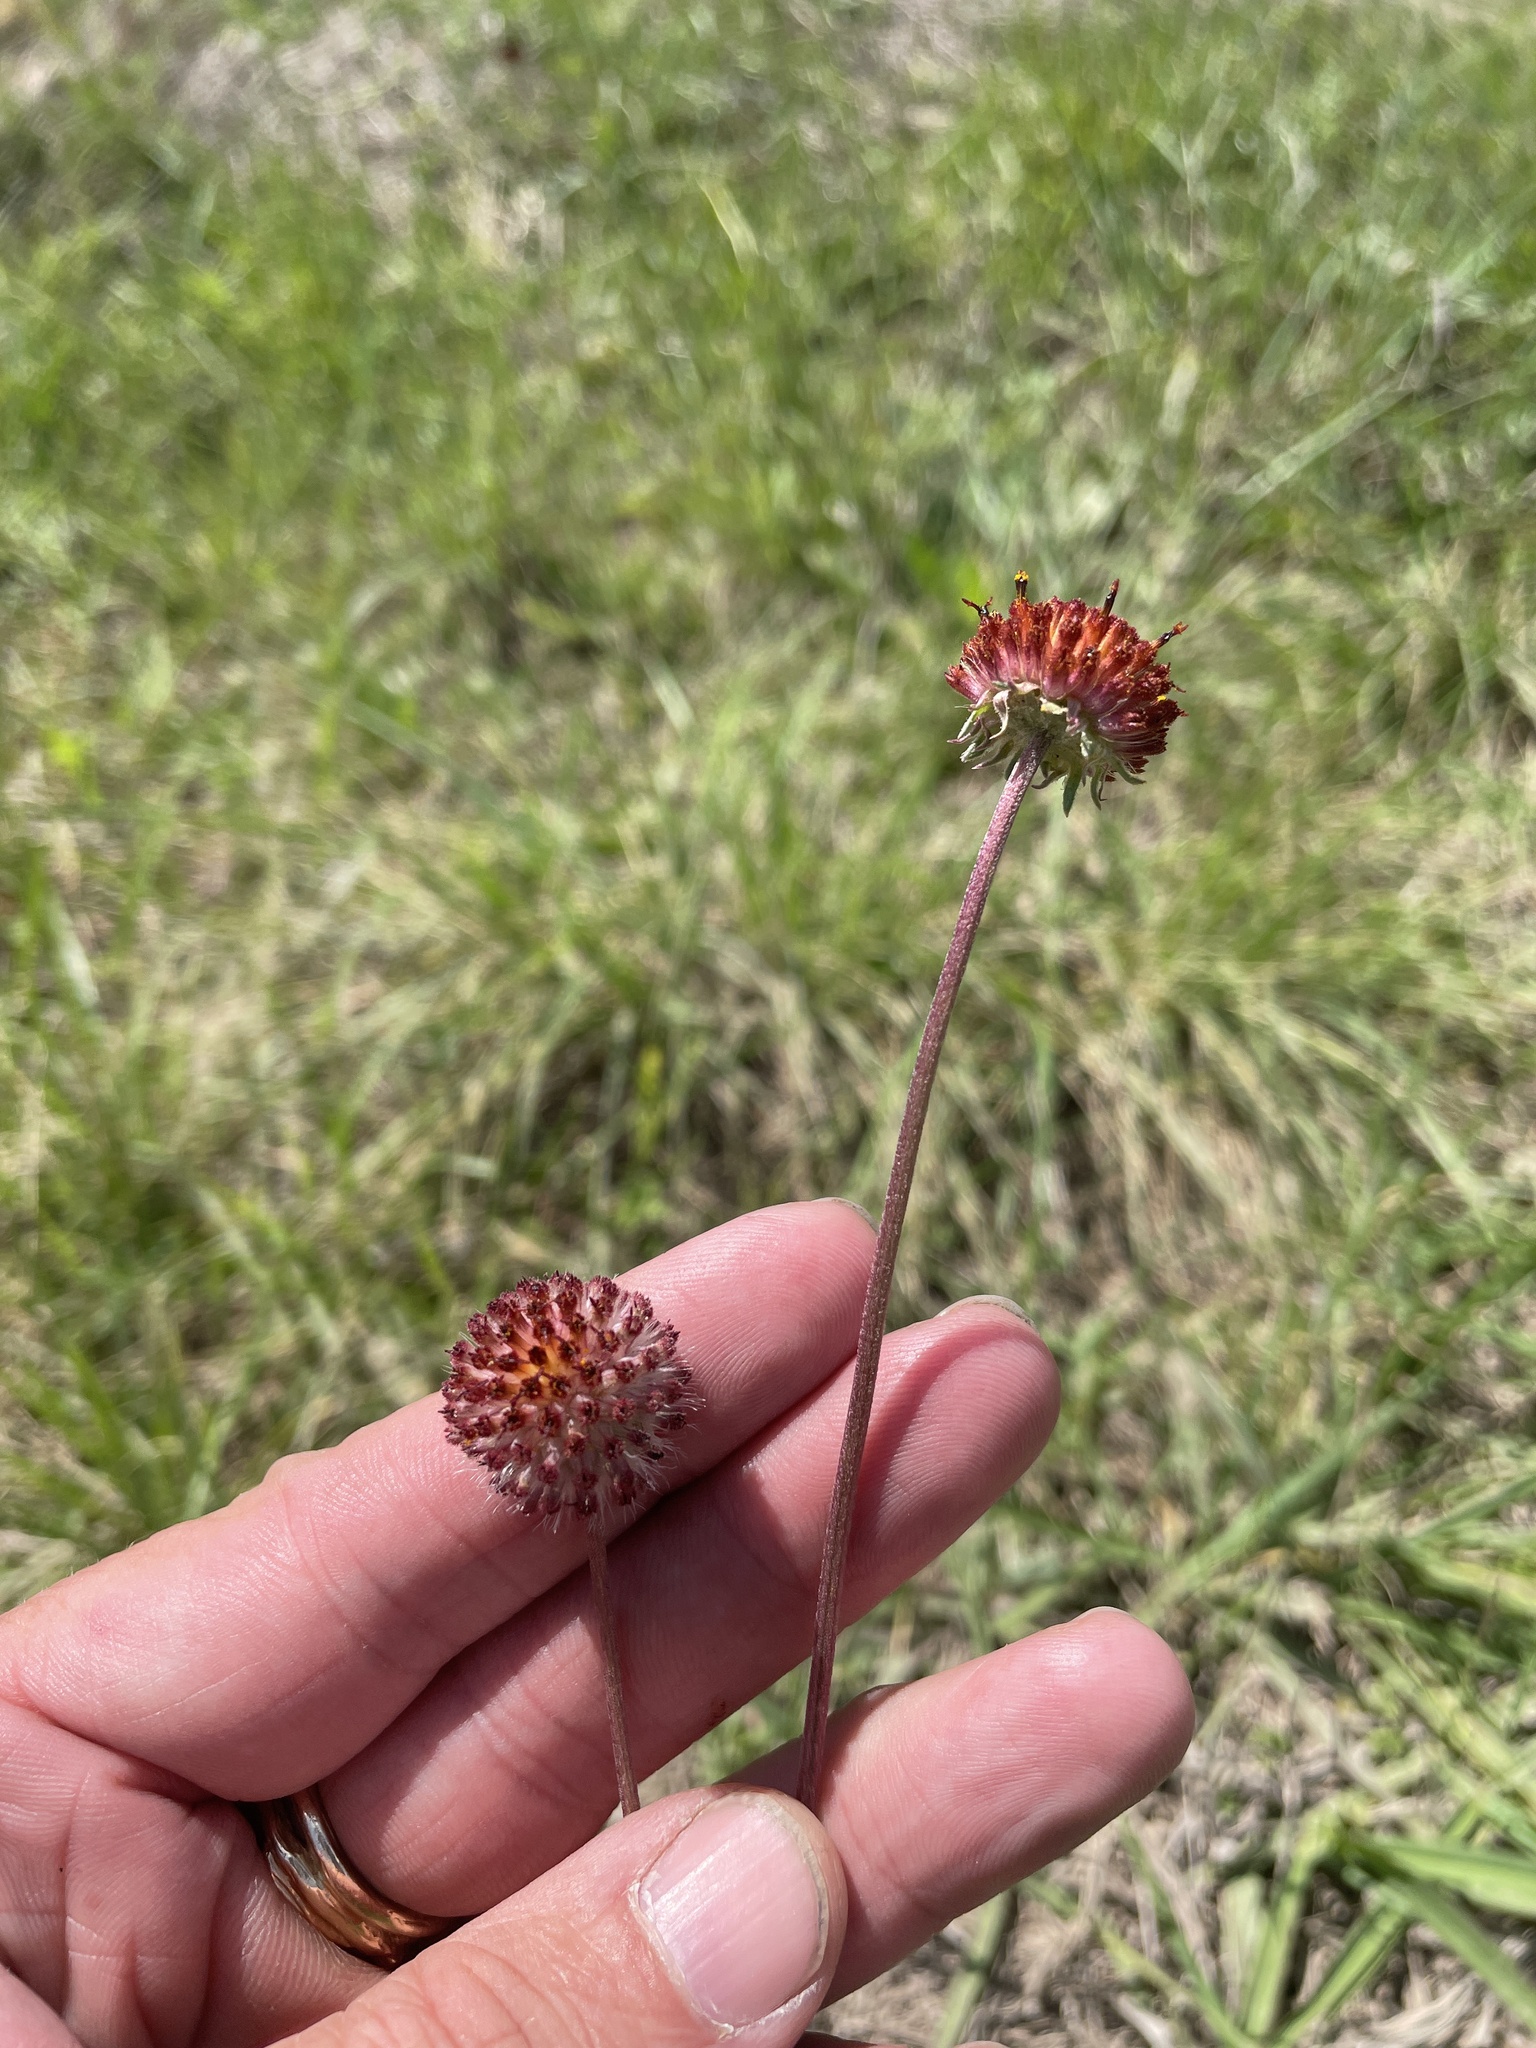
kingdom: Plantae
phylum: Tracheophyta
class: Magnoliopsida
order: Asterales
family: Asteraceae
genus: Gaillardia
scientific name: Gaillardia suavis
